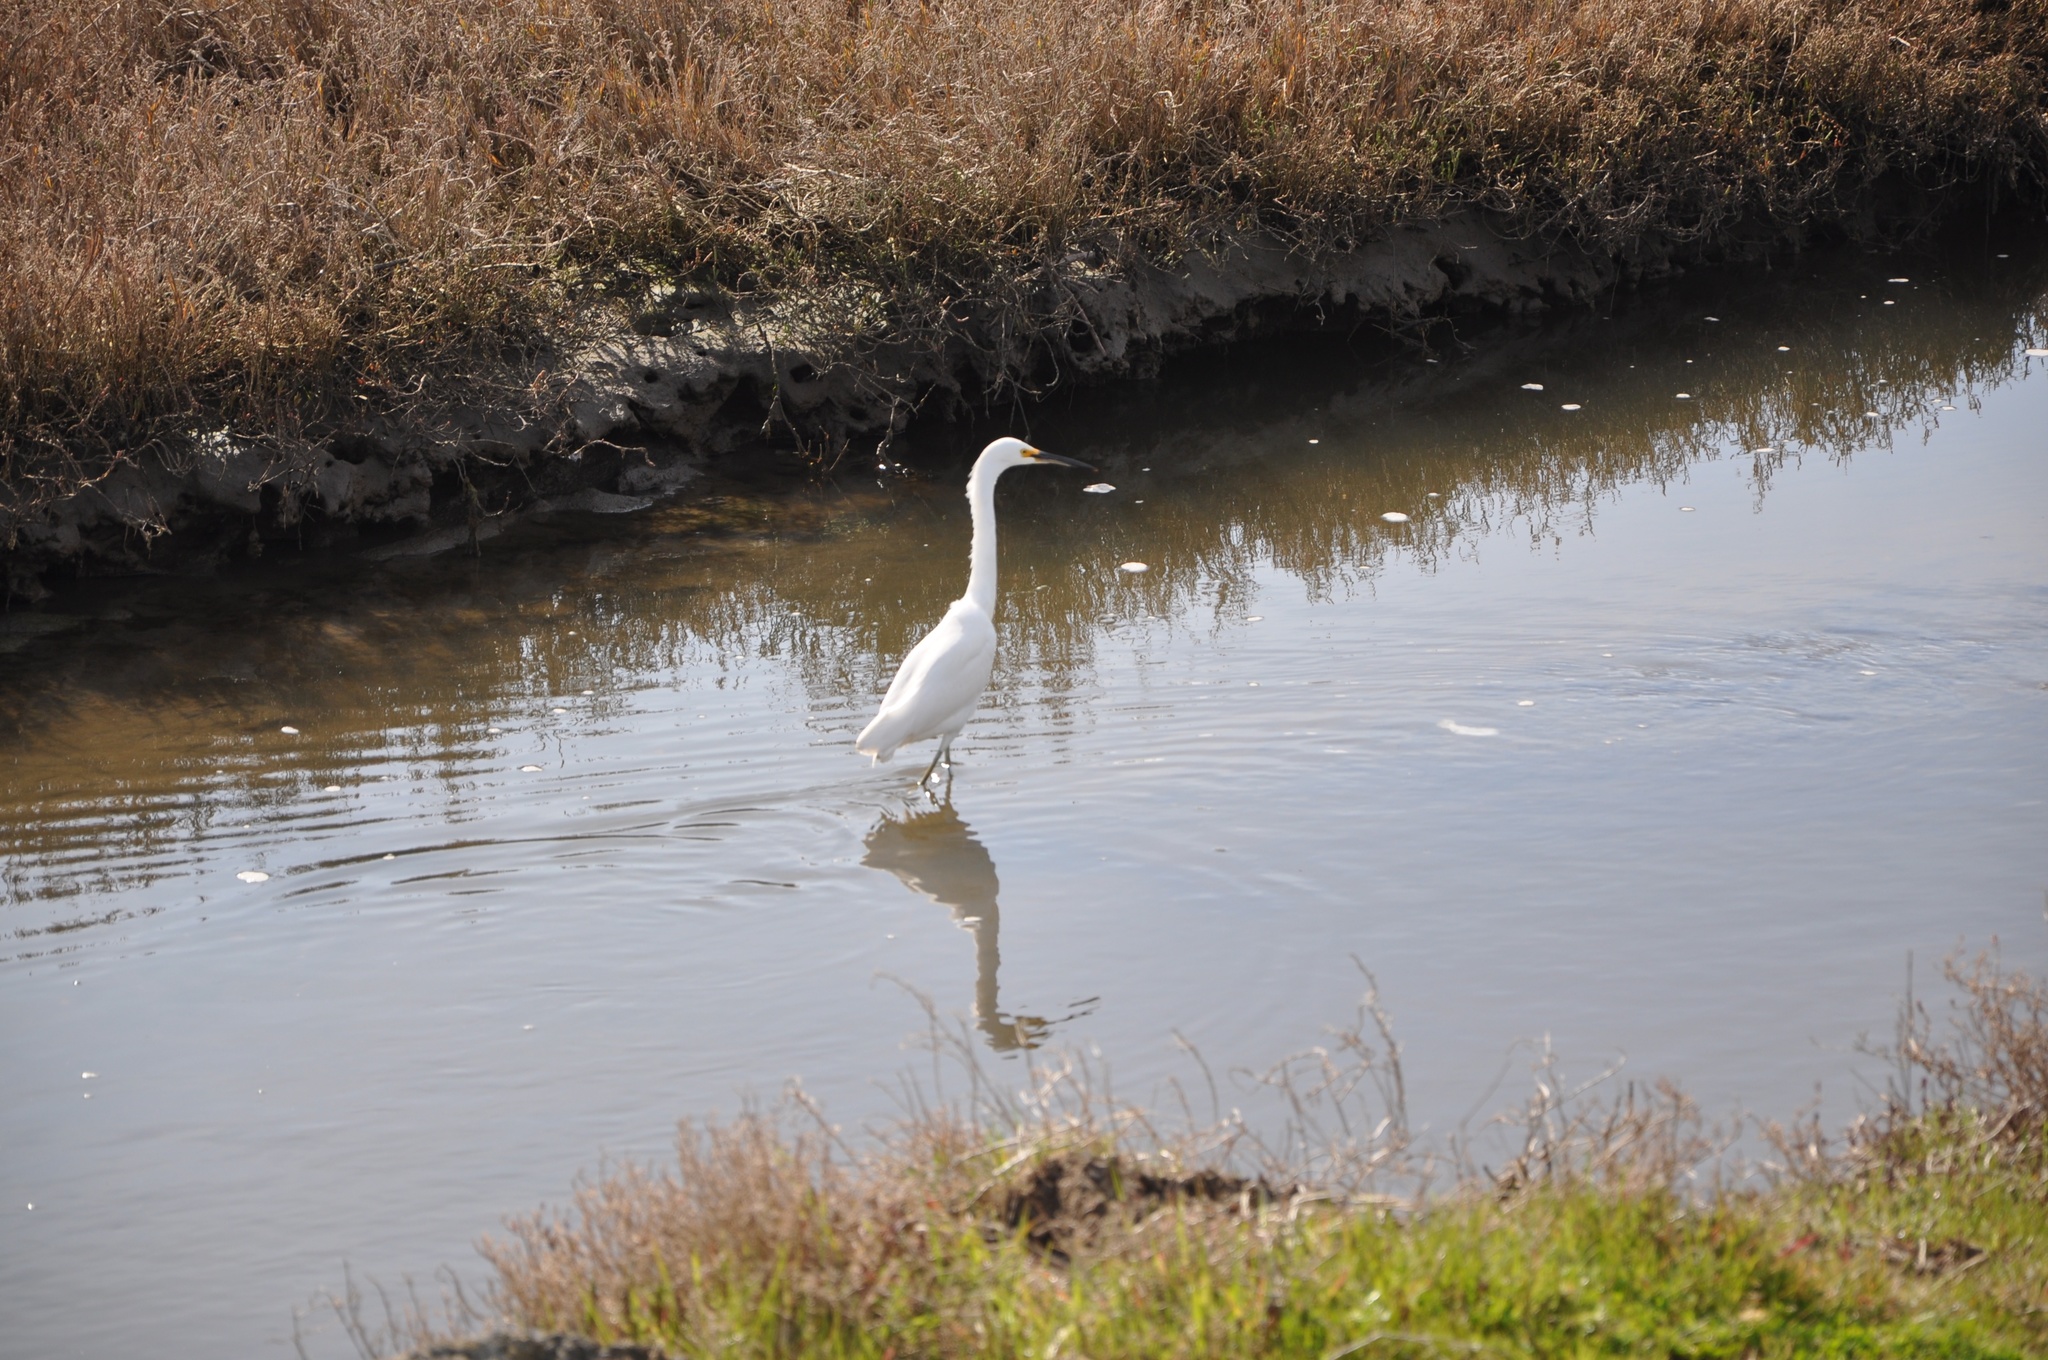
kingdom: Animalia
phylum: Chordata
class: Aves
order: Pelecaniformes
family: Ardeidae
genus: Egretta
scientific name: Egretta thula
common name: Snowy egret
